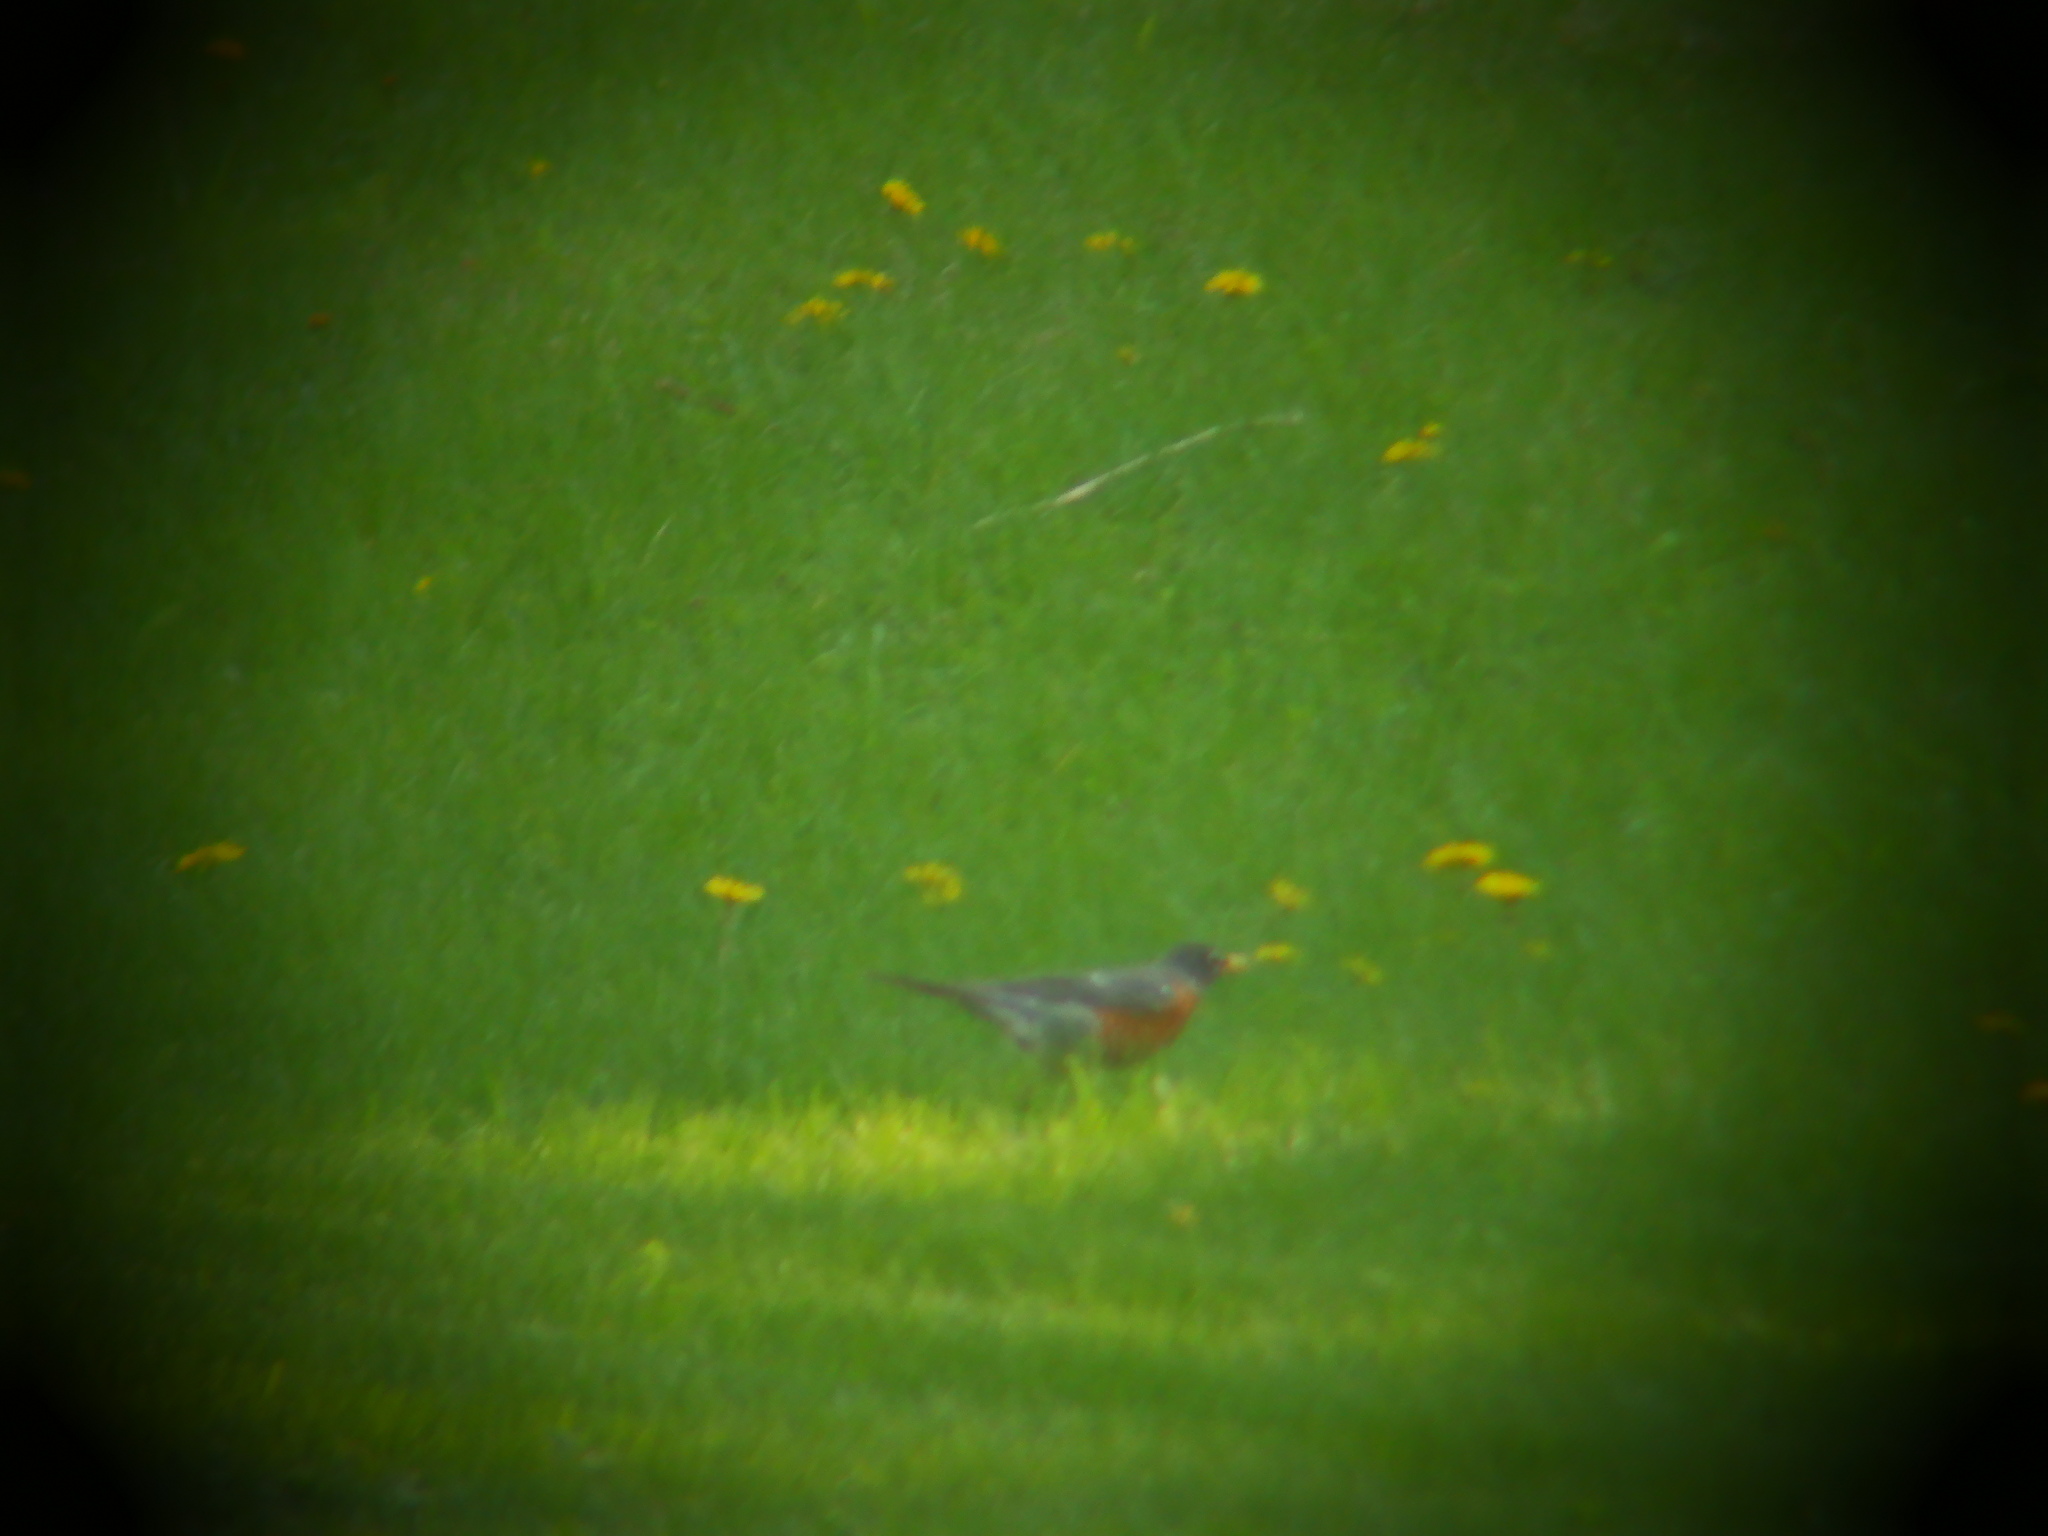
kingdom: Animalia
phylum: Chordata
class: Aves
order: Passeriformes
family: Turdidae
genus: Turdus
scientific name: Turdus migratorius
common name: American robin
